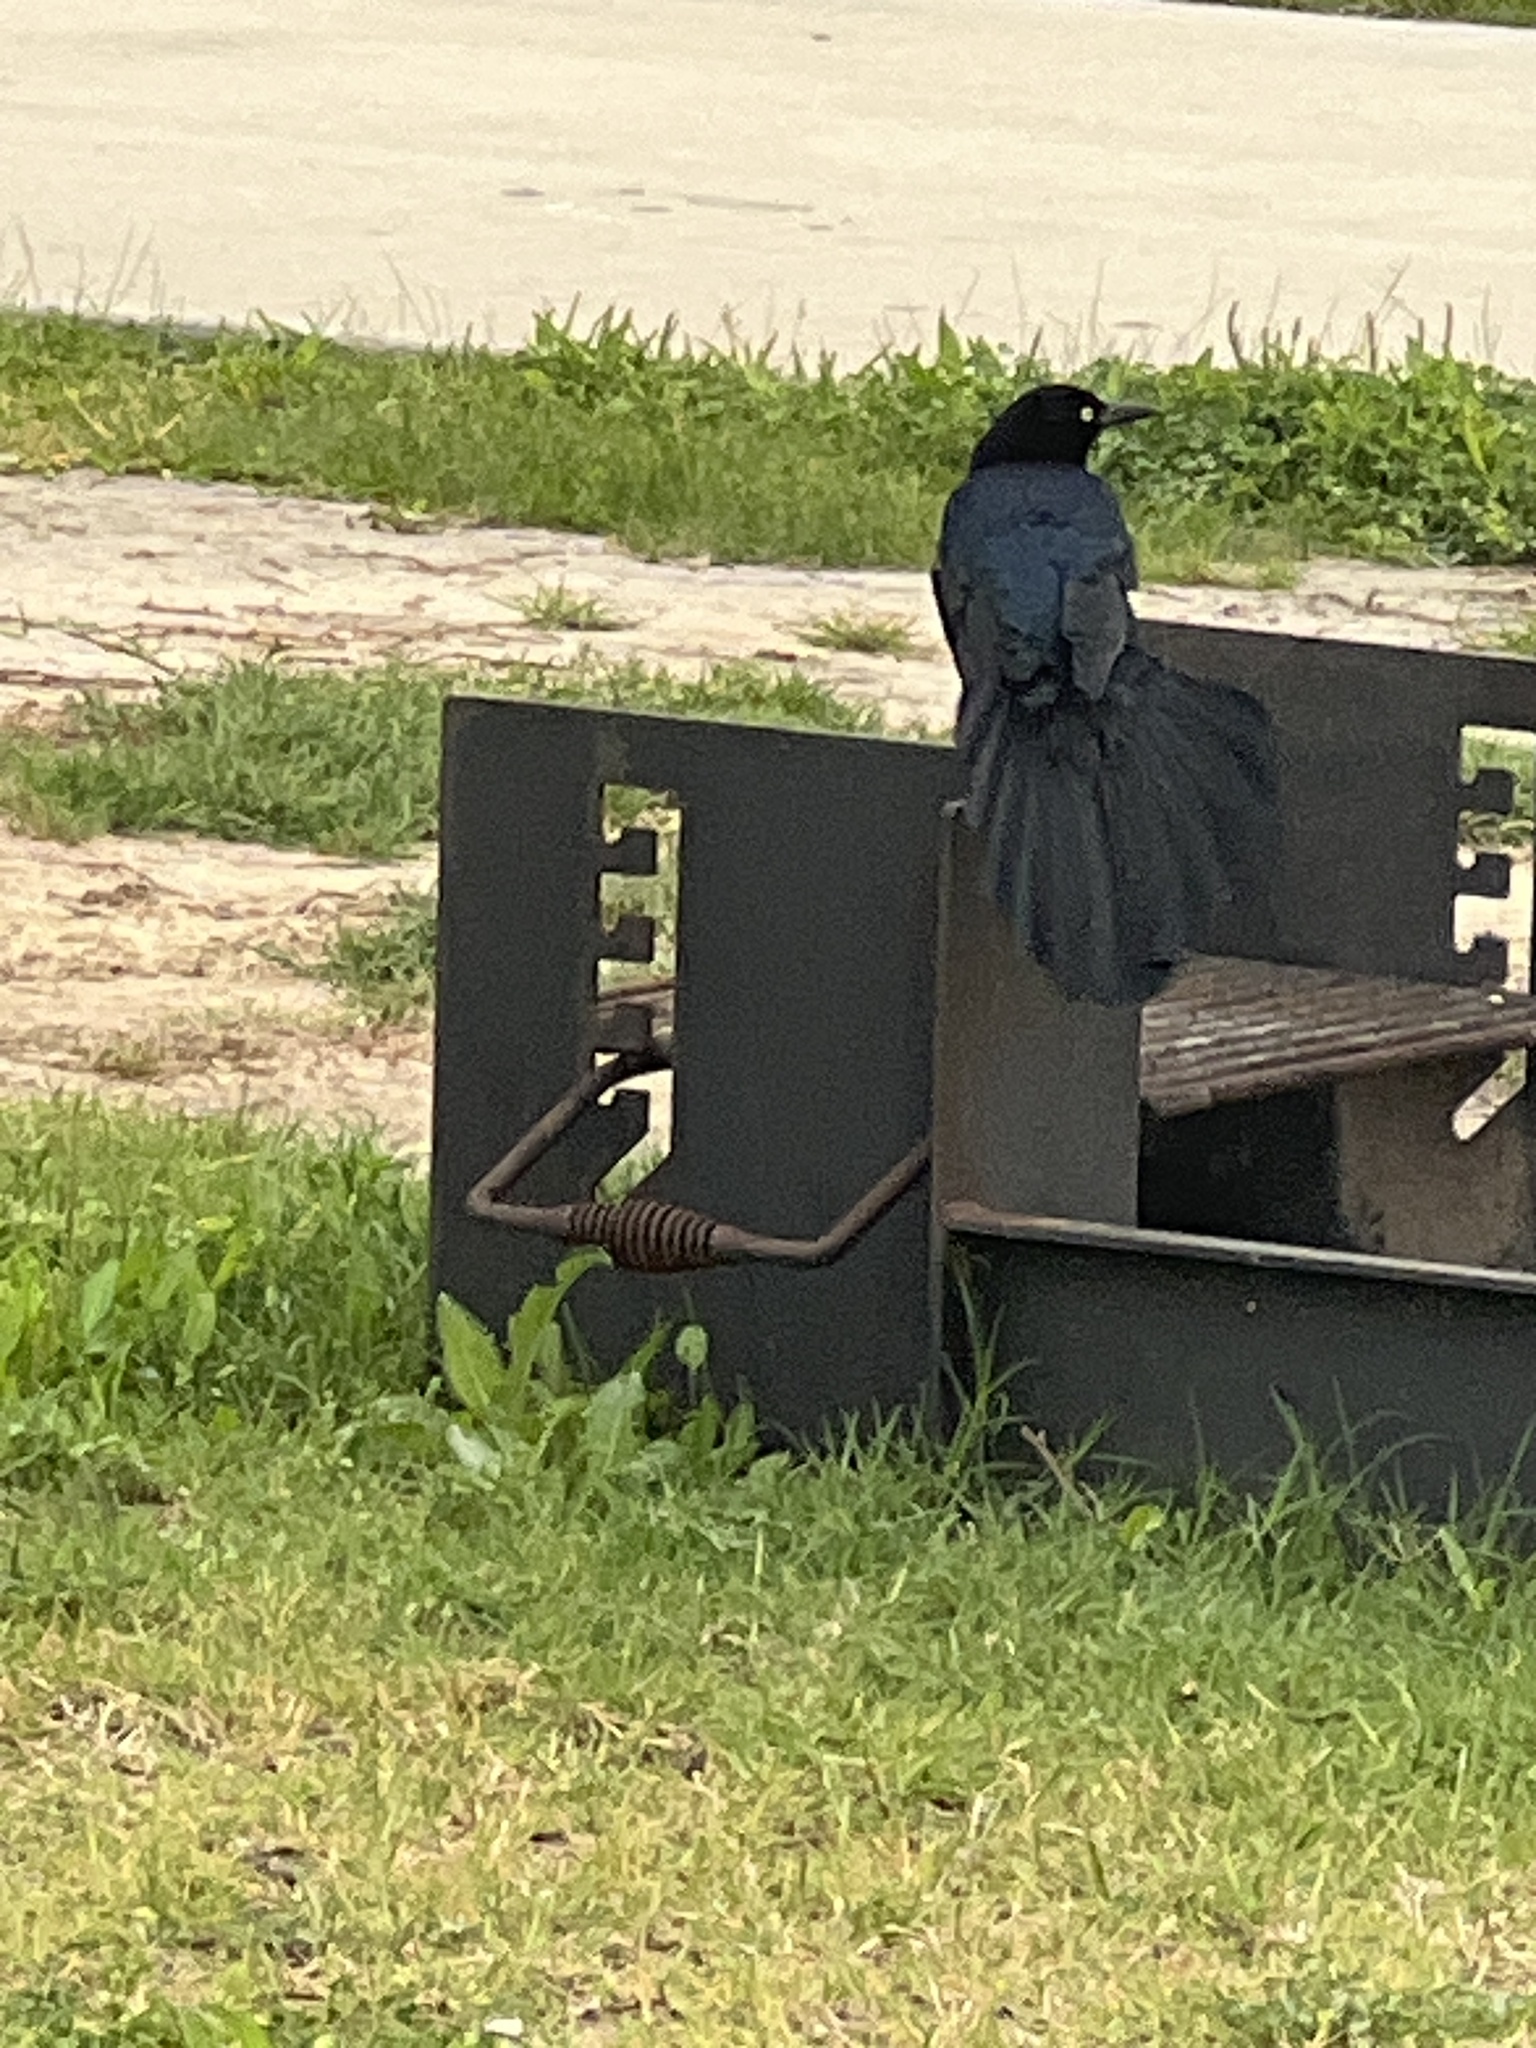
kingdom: Animalia
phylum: Chordata
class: Aves
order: Passeriformes
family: Icteridae
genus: Quiscalus
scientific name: Quiscalus mexicanus
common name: Great-tailed grackle
